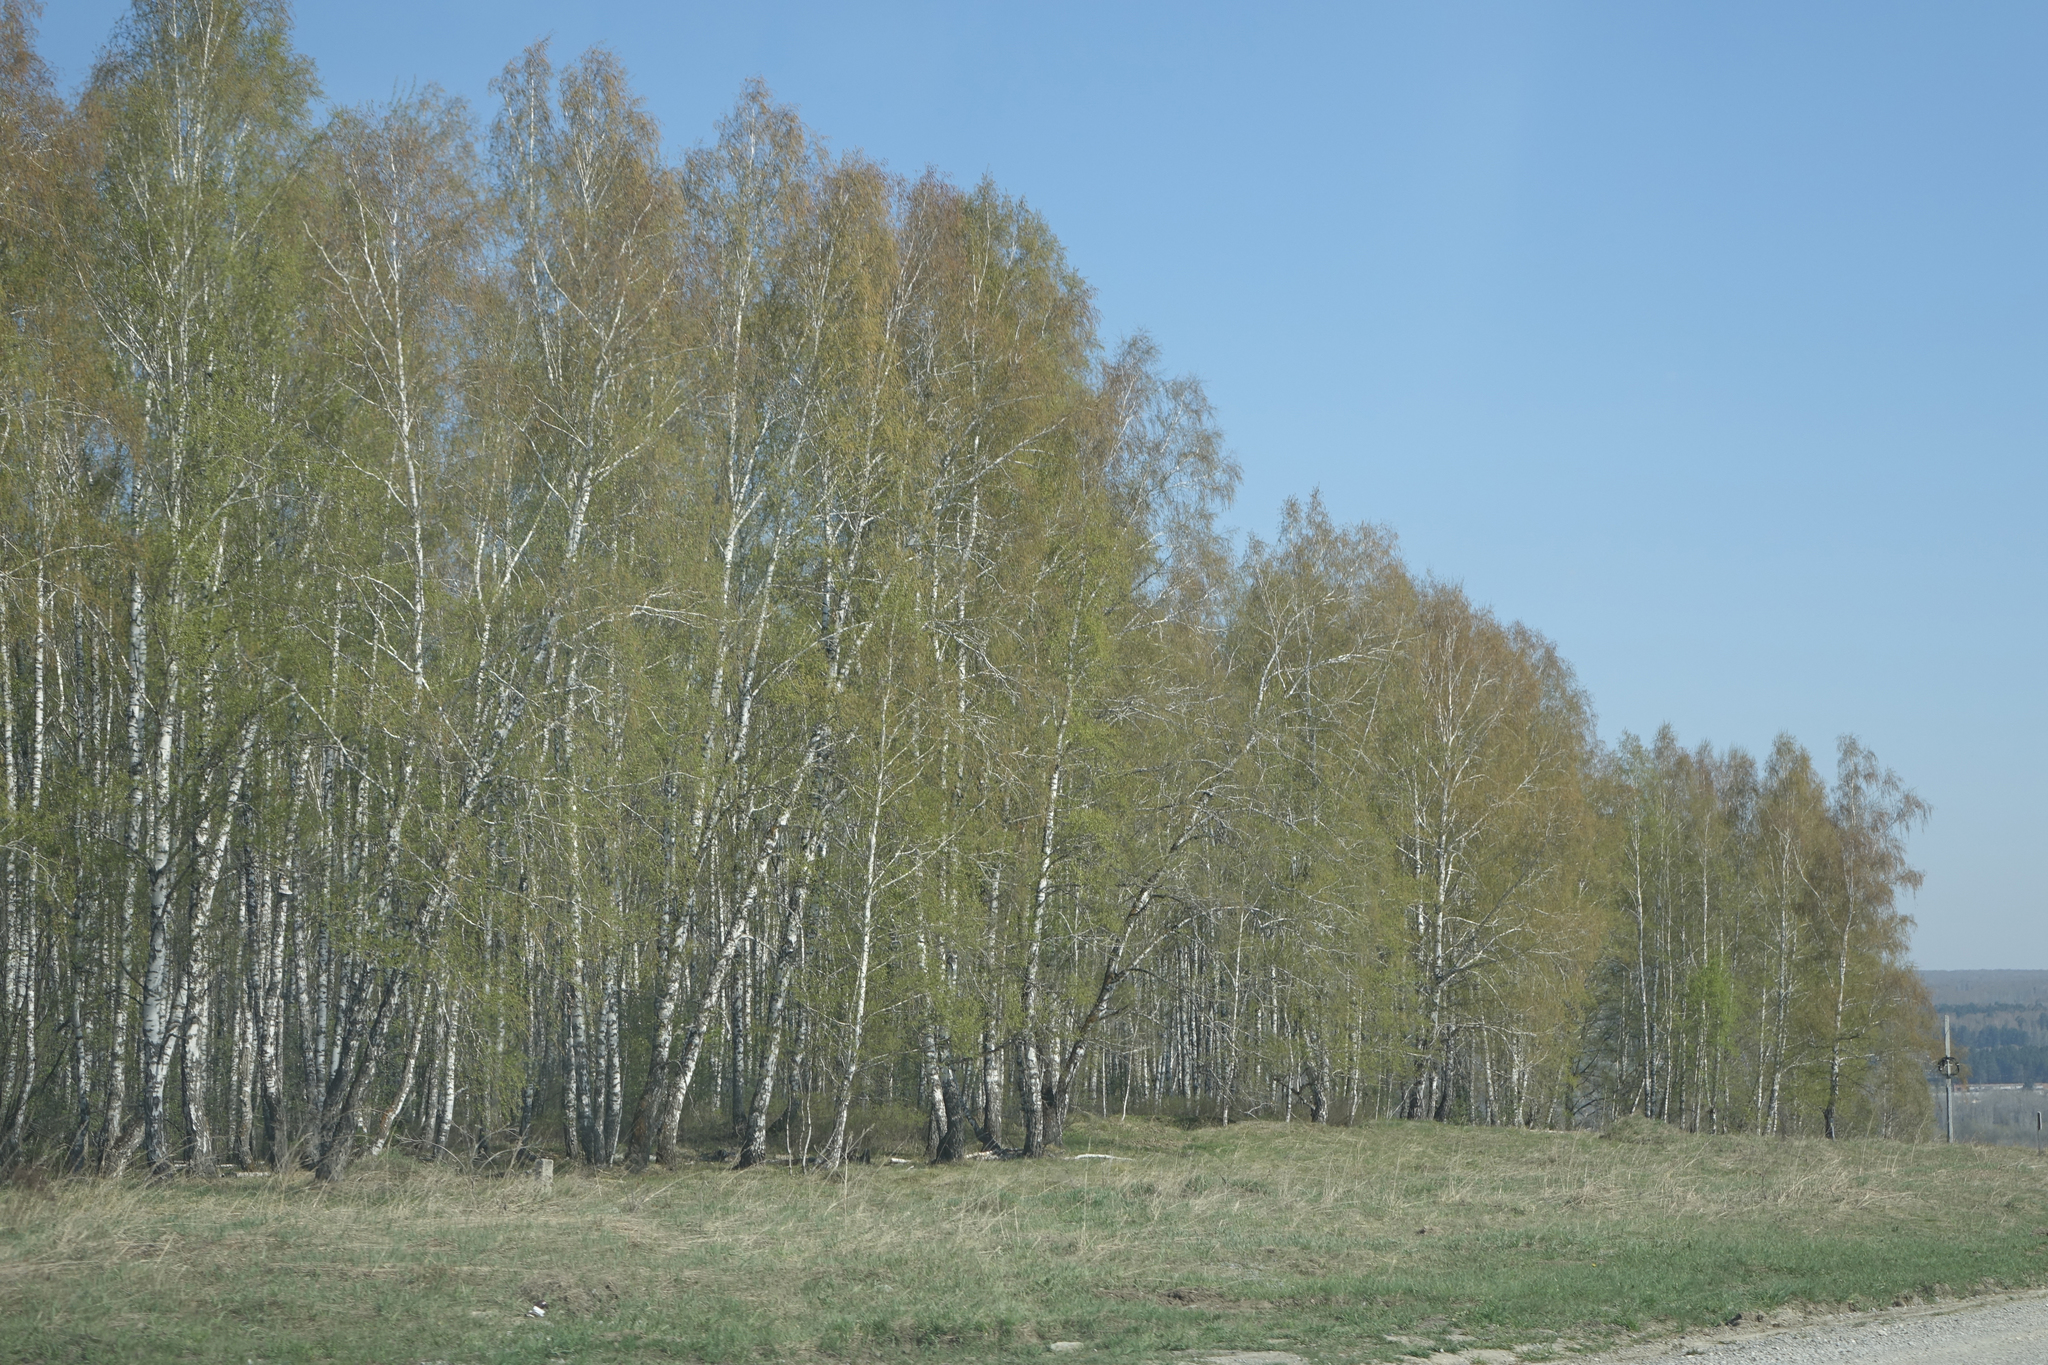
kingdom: Plantae
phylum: Tracheophyta
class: Magnoliopsida
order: Fagales
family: Betulaceae
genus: Betula
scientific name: Betula pendula
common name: Silver birch
